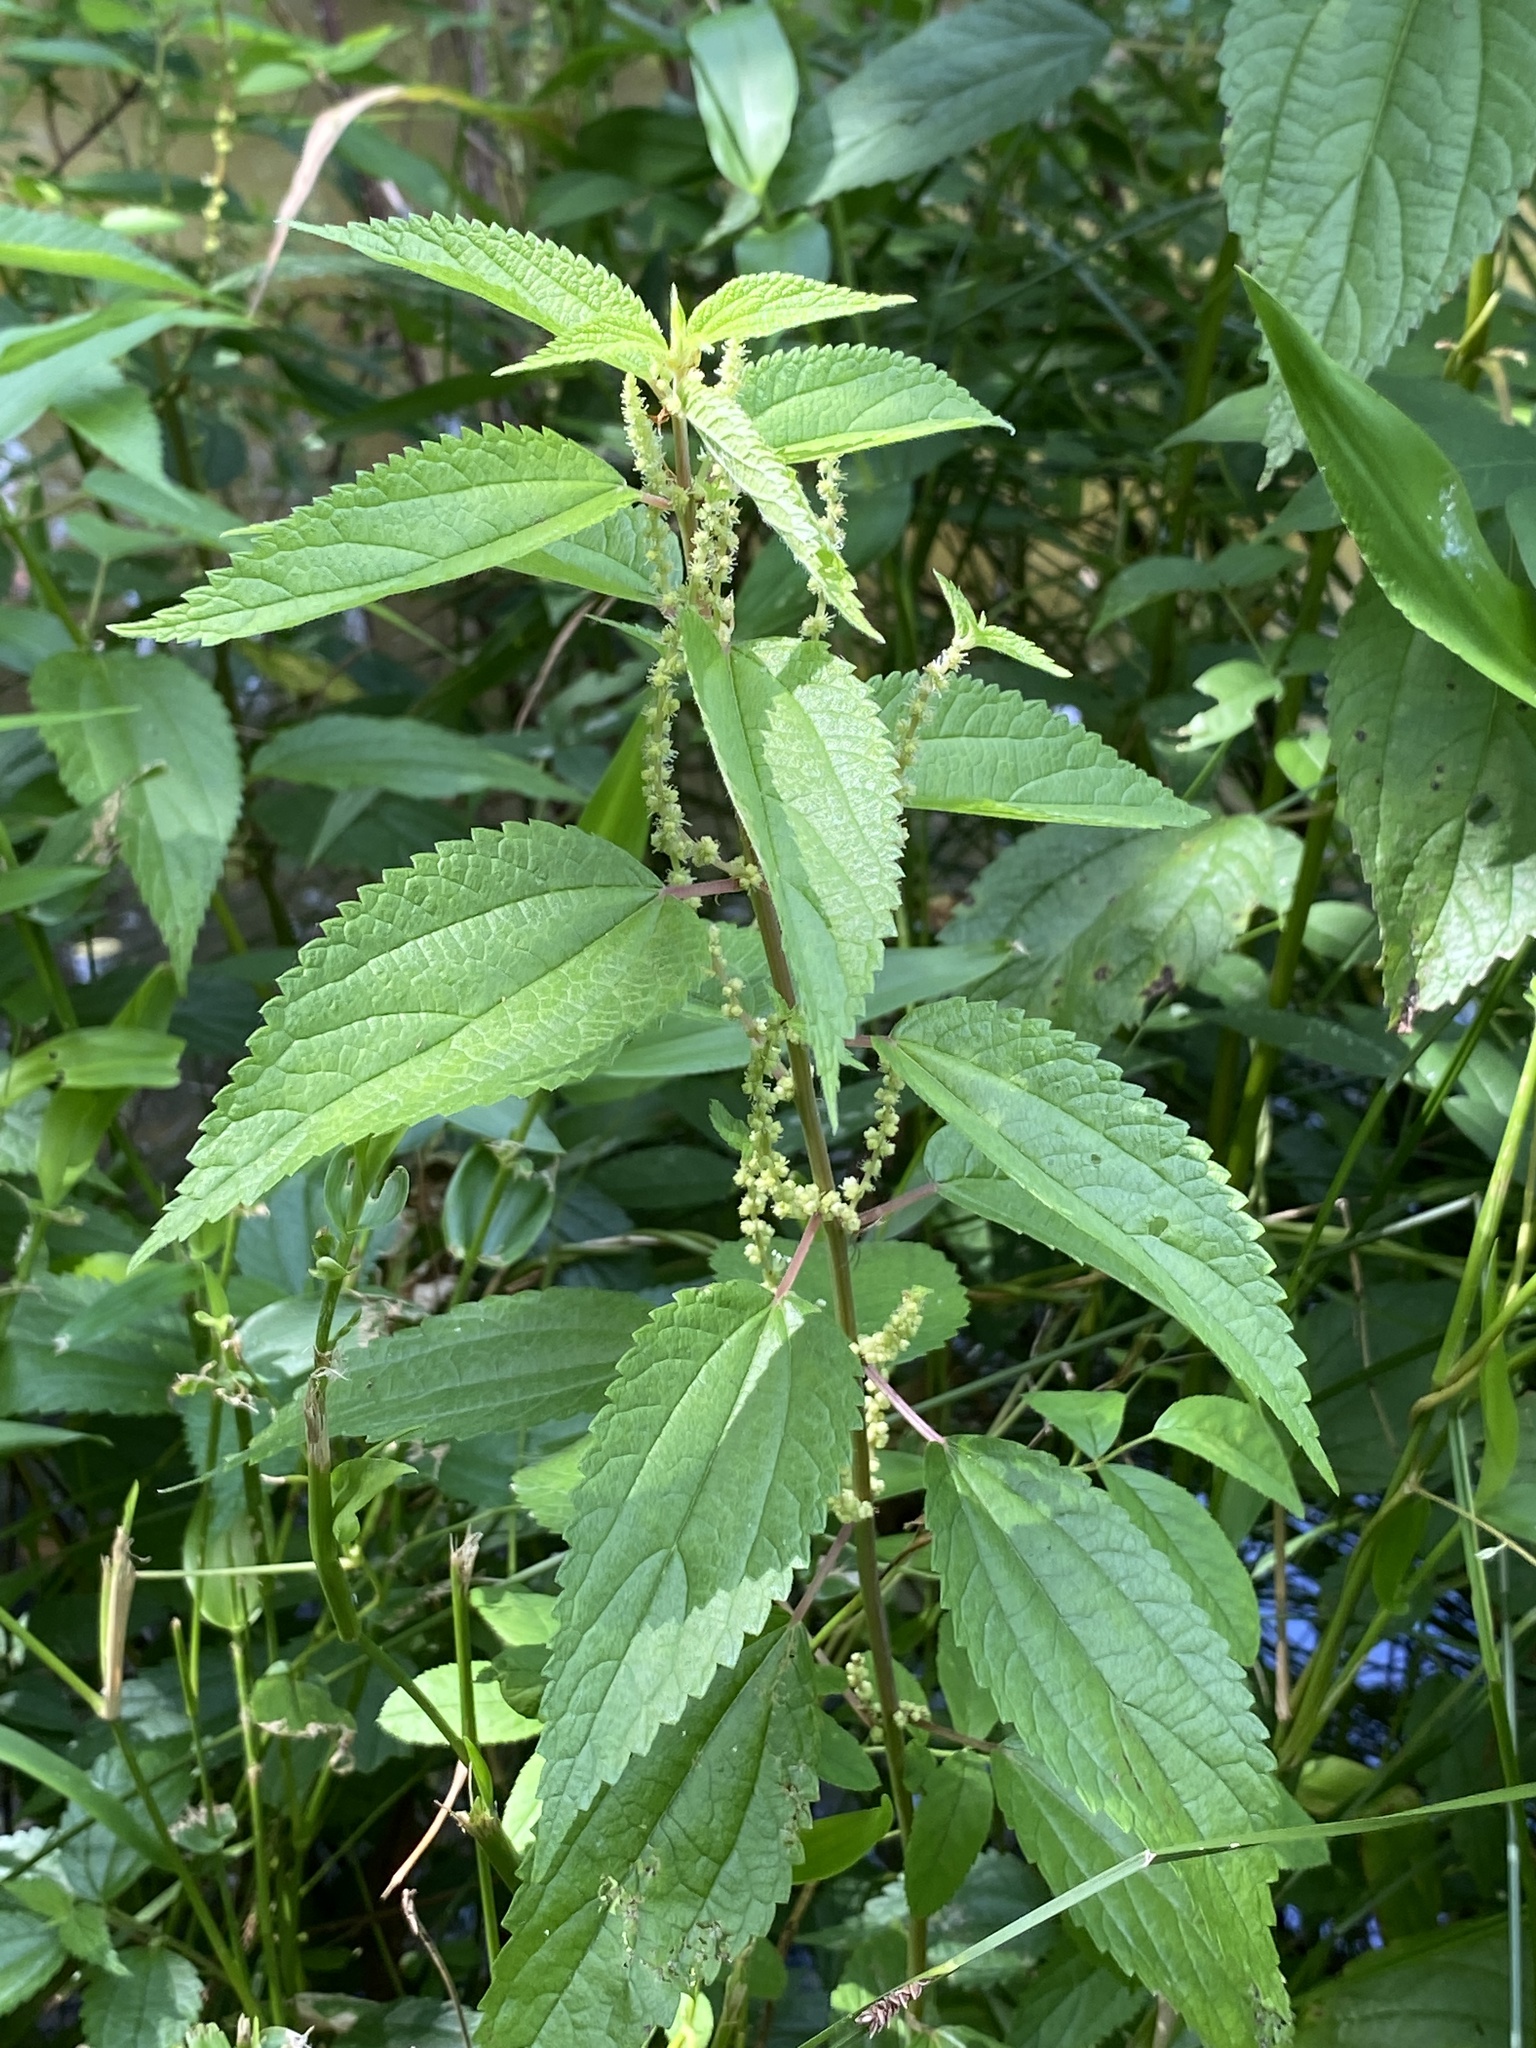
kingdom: Plantae
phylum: Tracheophyta
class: Magnoliopsida
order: Rosales
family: Urticaceae
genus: Boehmeria
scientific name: Boehmeria cylindrica
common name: Bog-hemp
